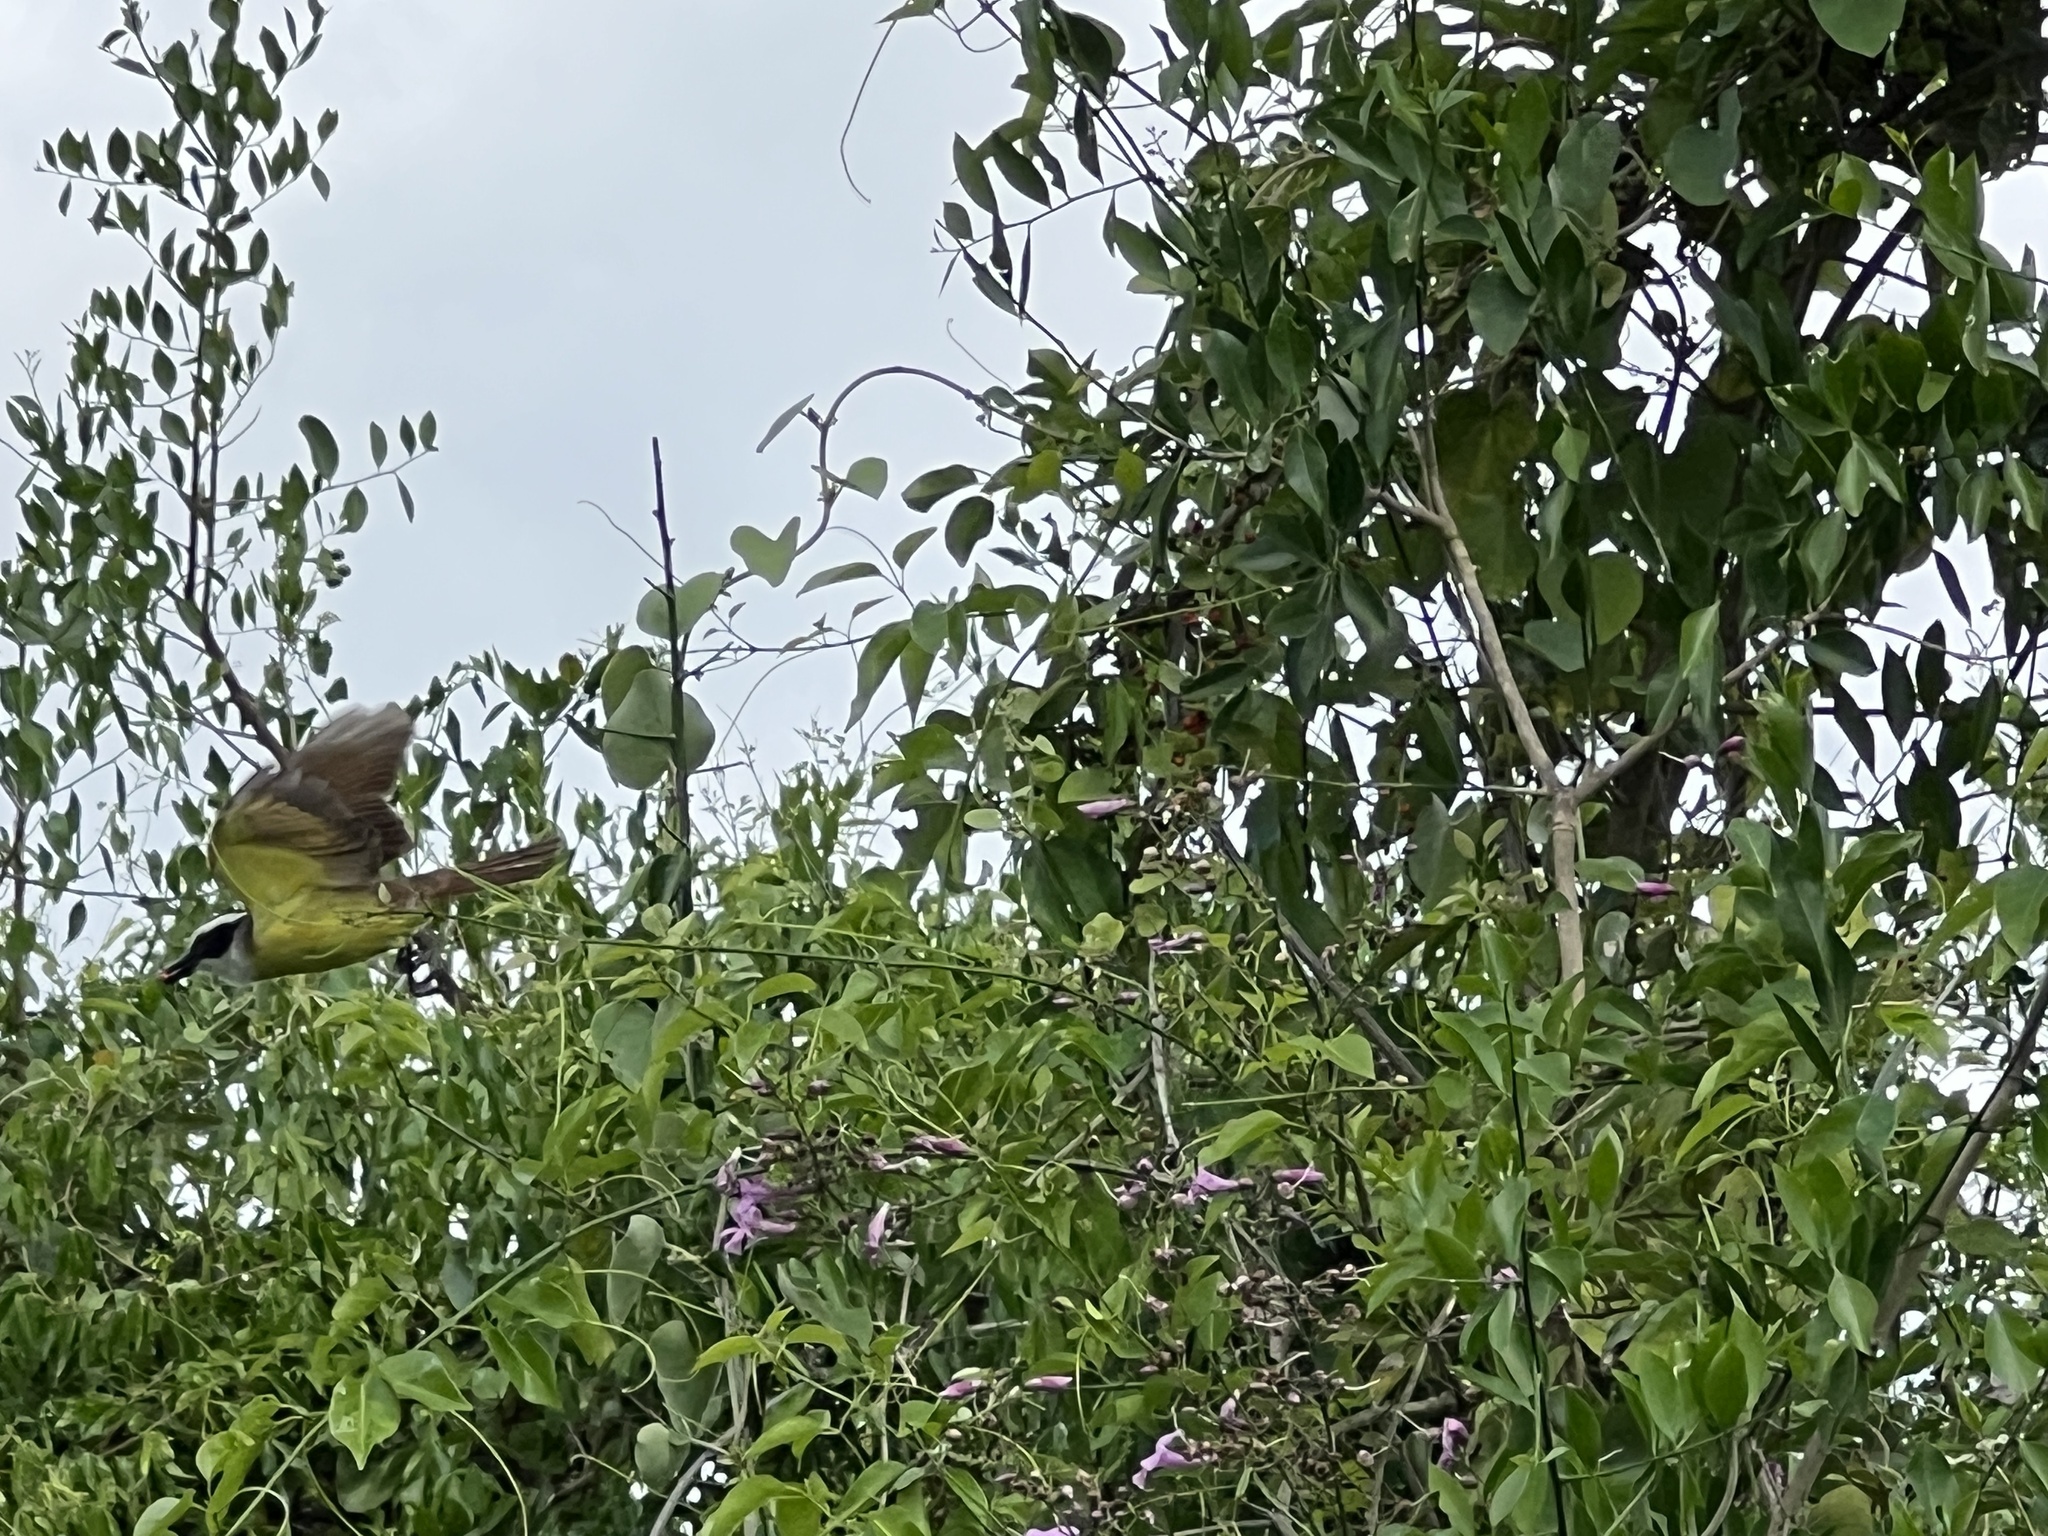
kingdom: Animalia
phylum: Chordata
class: Aves
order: Passeriformes
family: Tyrannidae
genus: Pitangus
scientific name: Pitangus sulphuratus
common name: Great kiskadee
